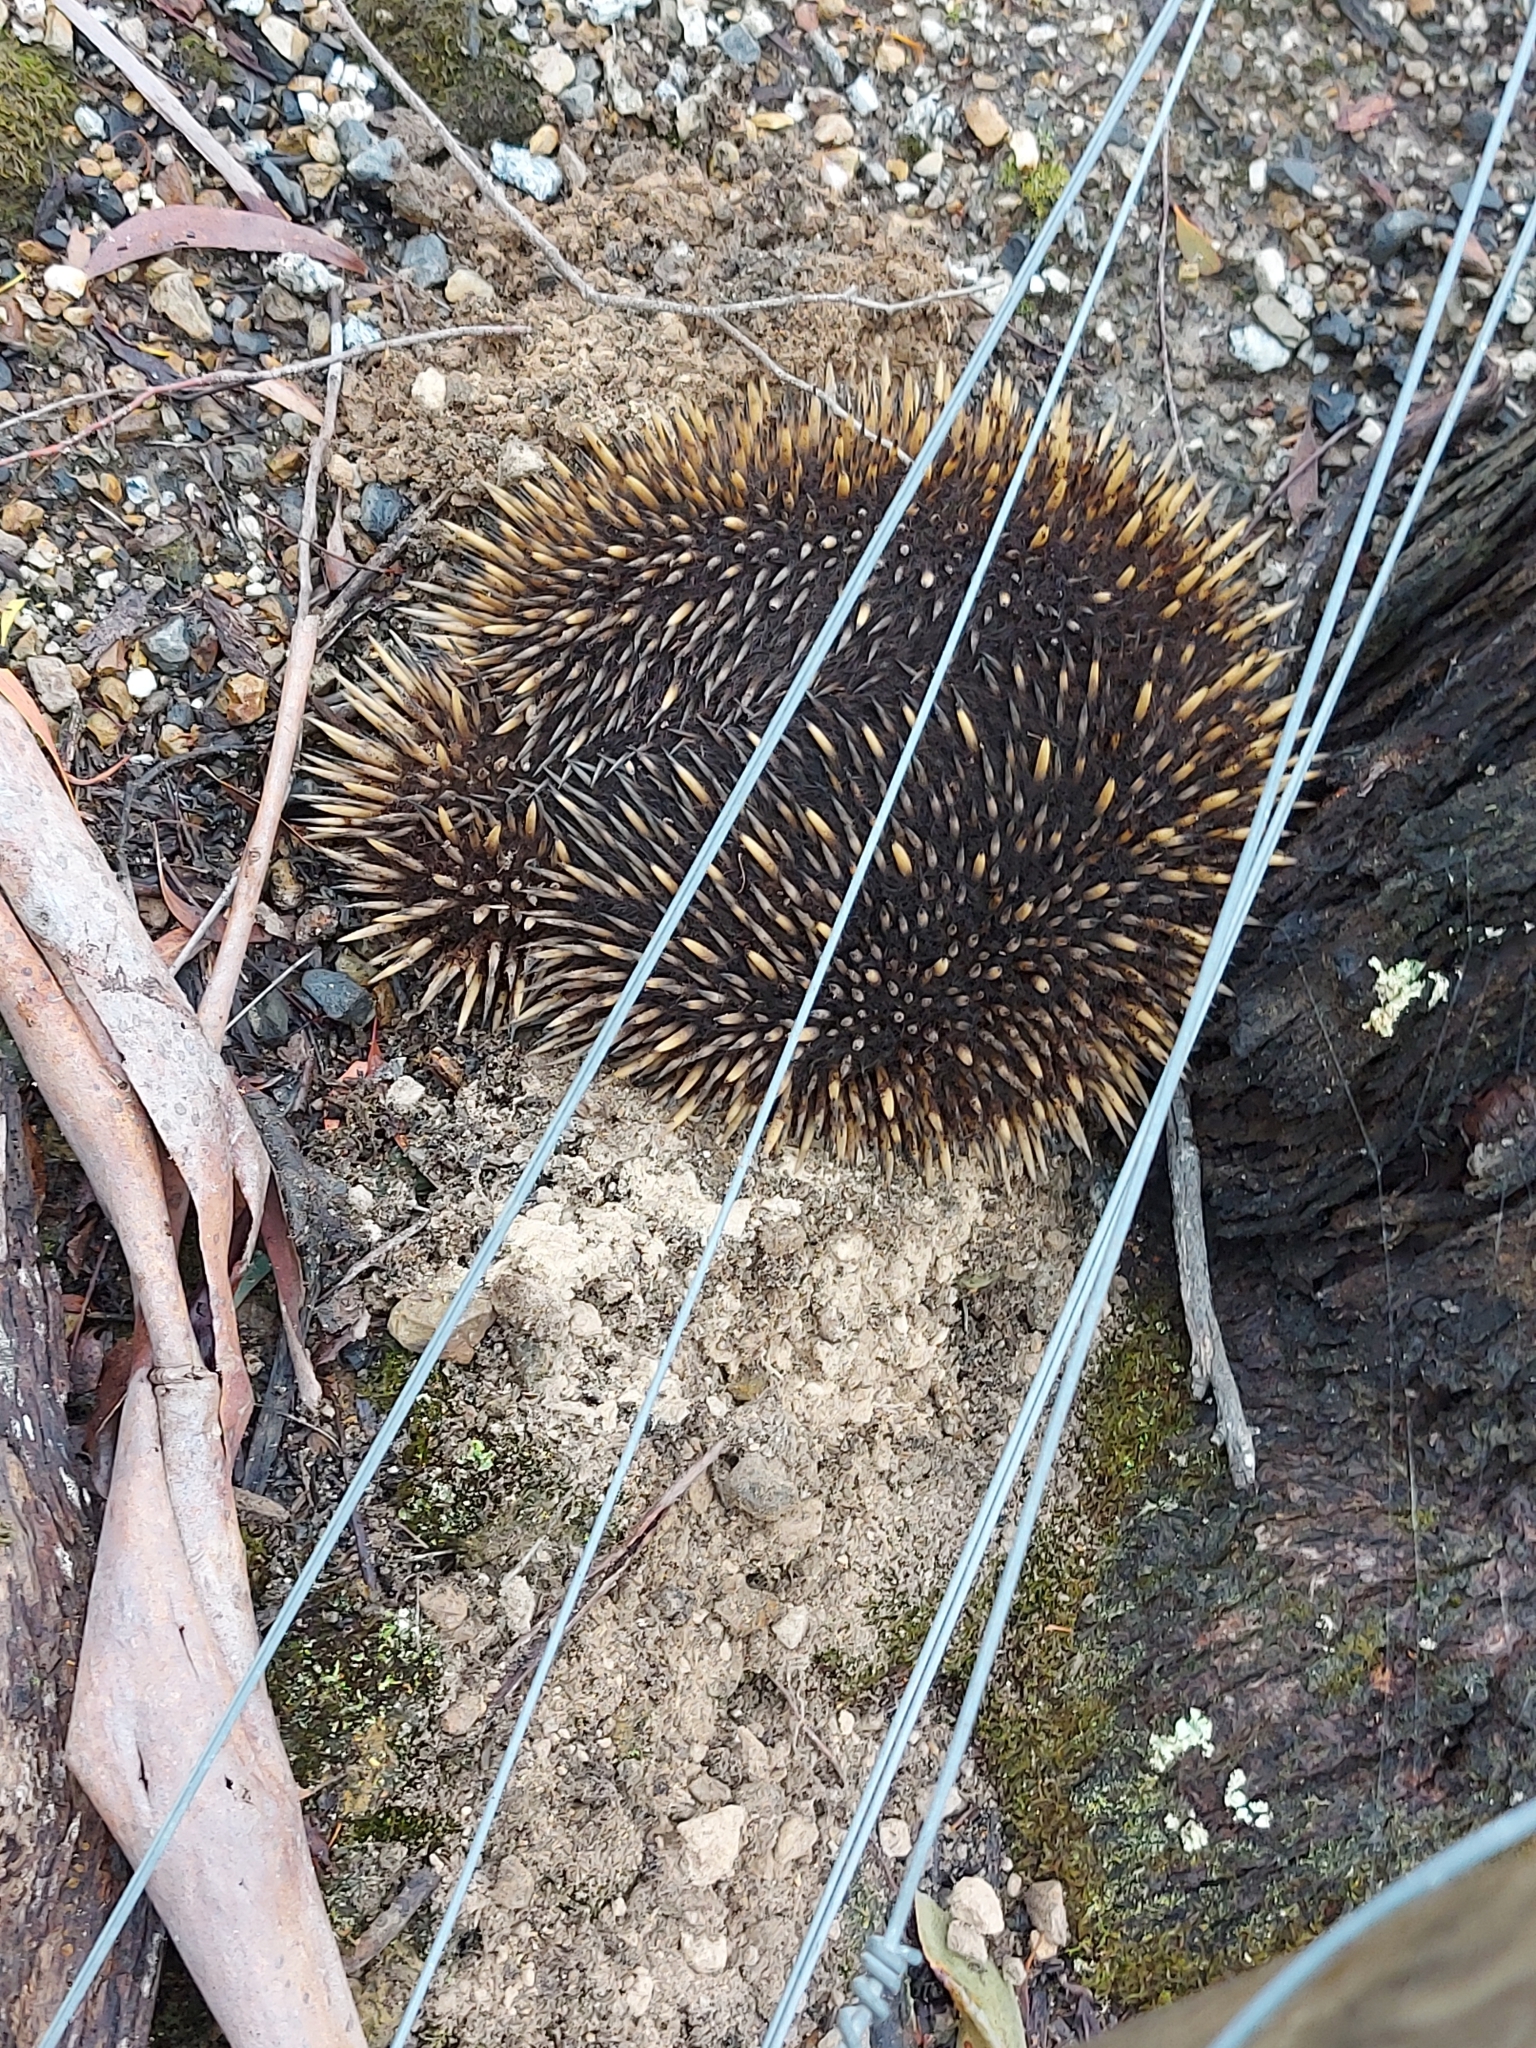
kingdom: Animalia
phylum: Chordata
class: Mammalia
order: Monotremata
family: Tachyglossidae
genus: Tachyglossus
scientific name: Tachyglossus aculeatus
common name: Short-beaked echidna
